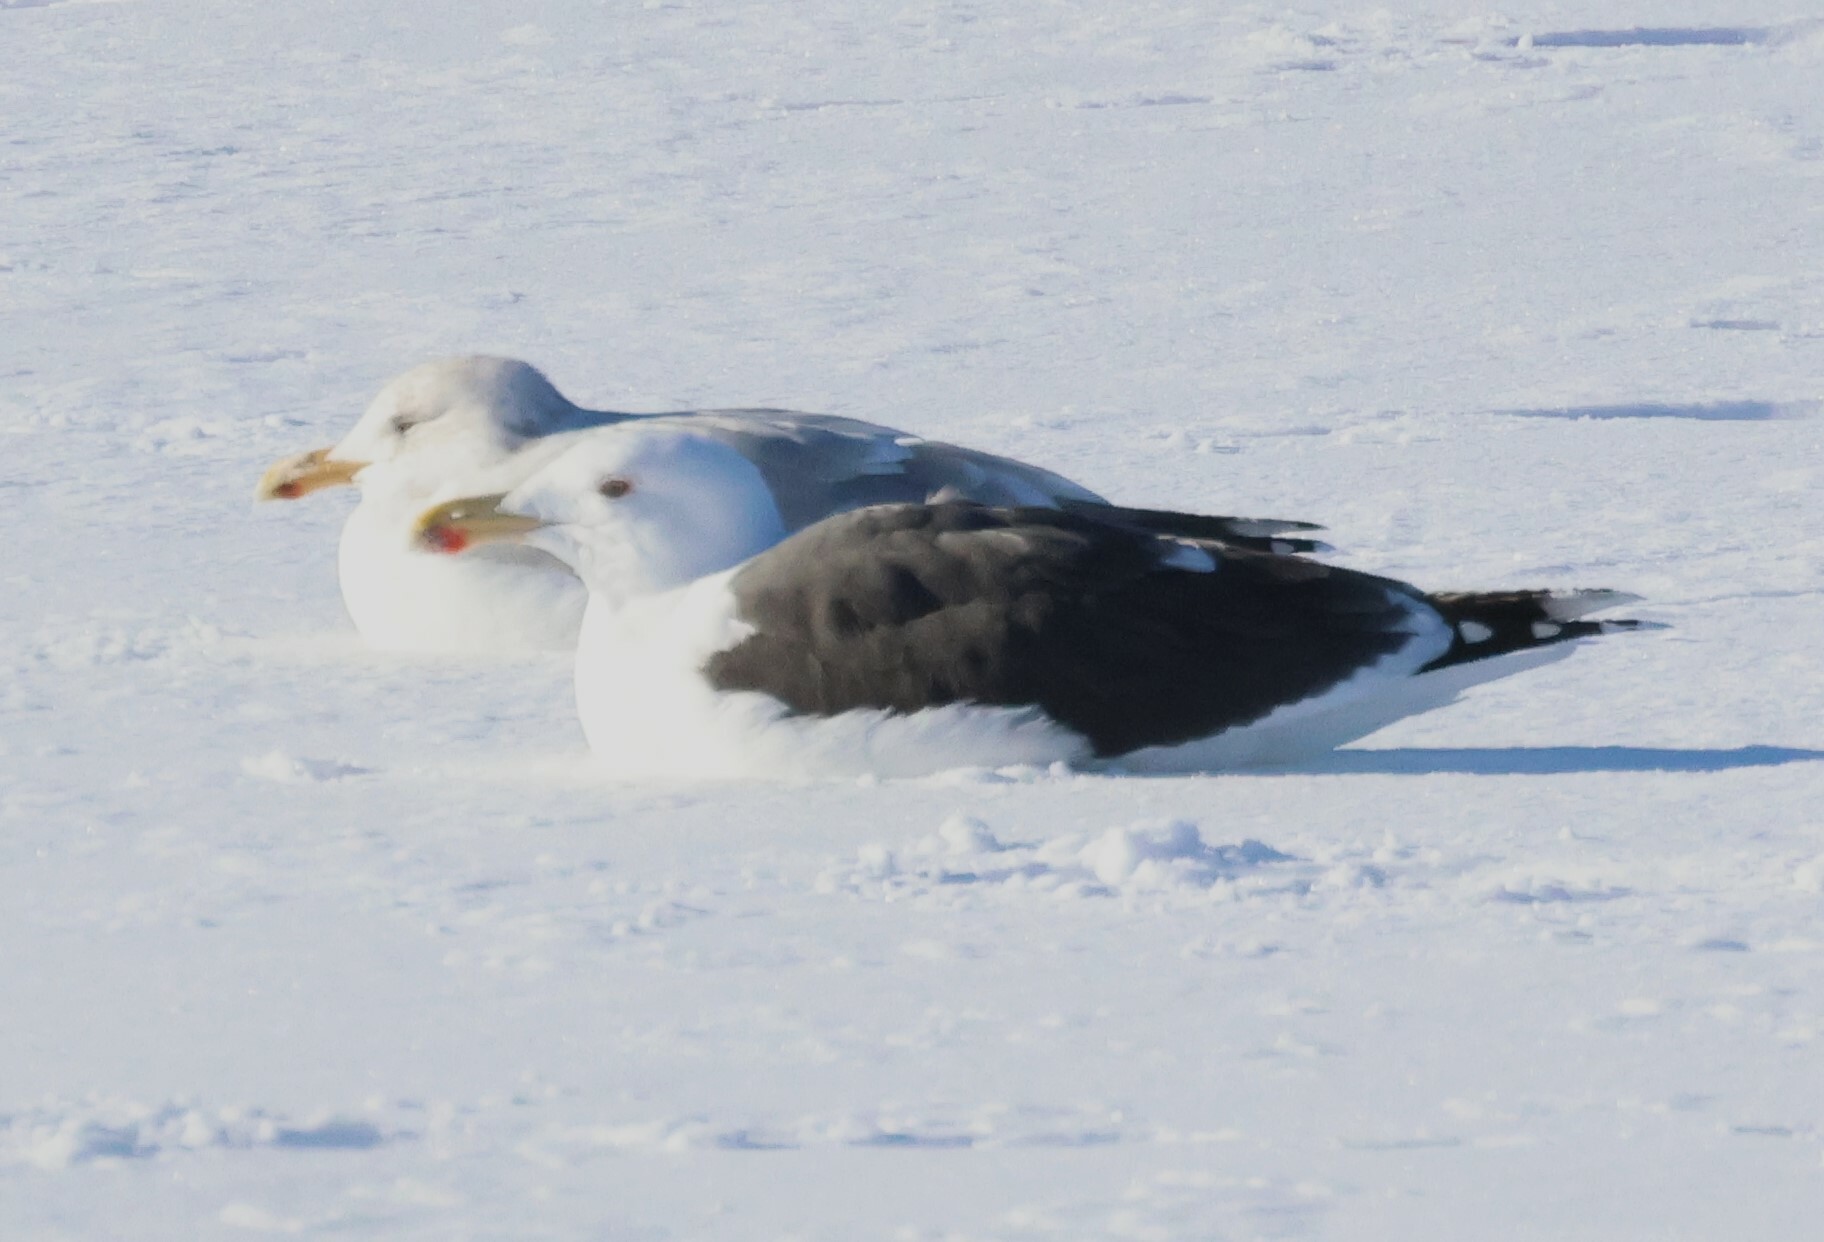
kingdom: Animalia
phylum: Chordata
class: Aves
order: Charadriiformes
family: Laridae
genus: Larus
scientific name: Larus marinus
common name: Great black-backed gull
